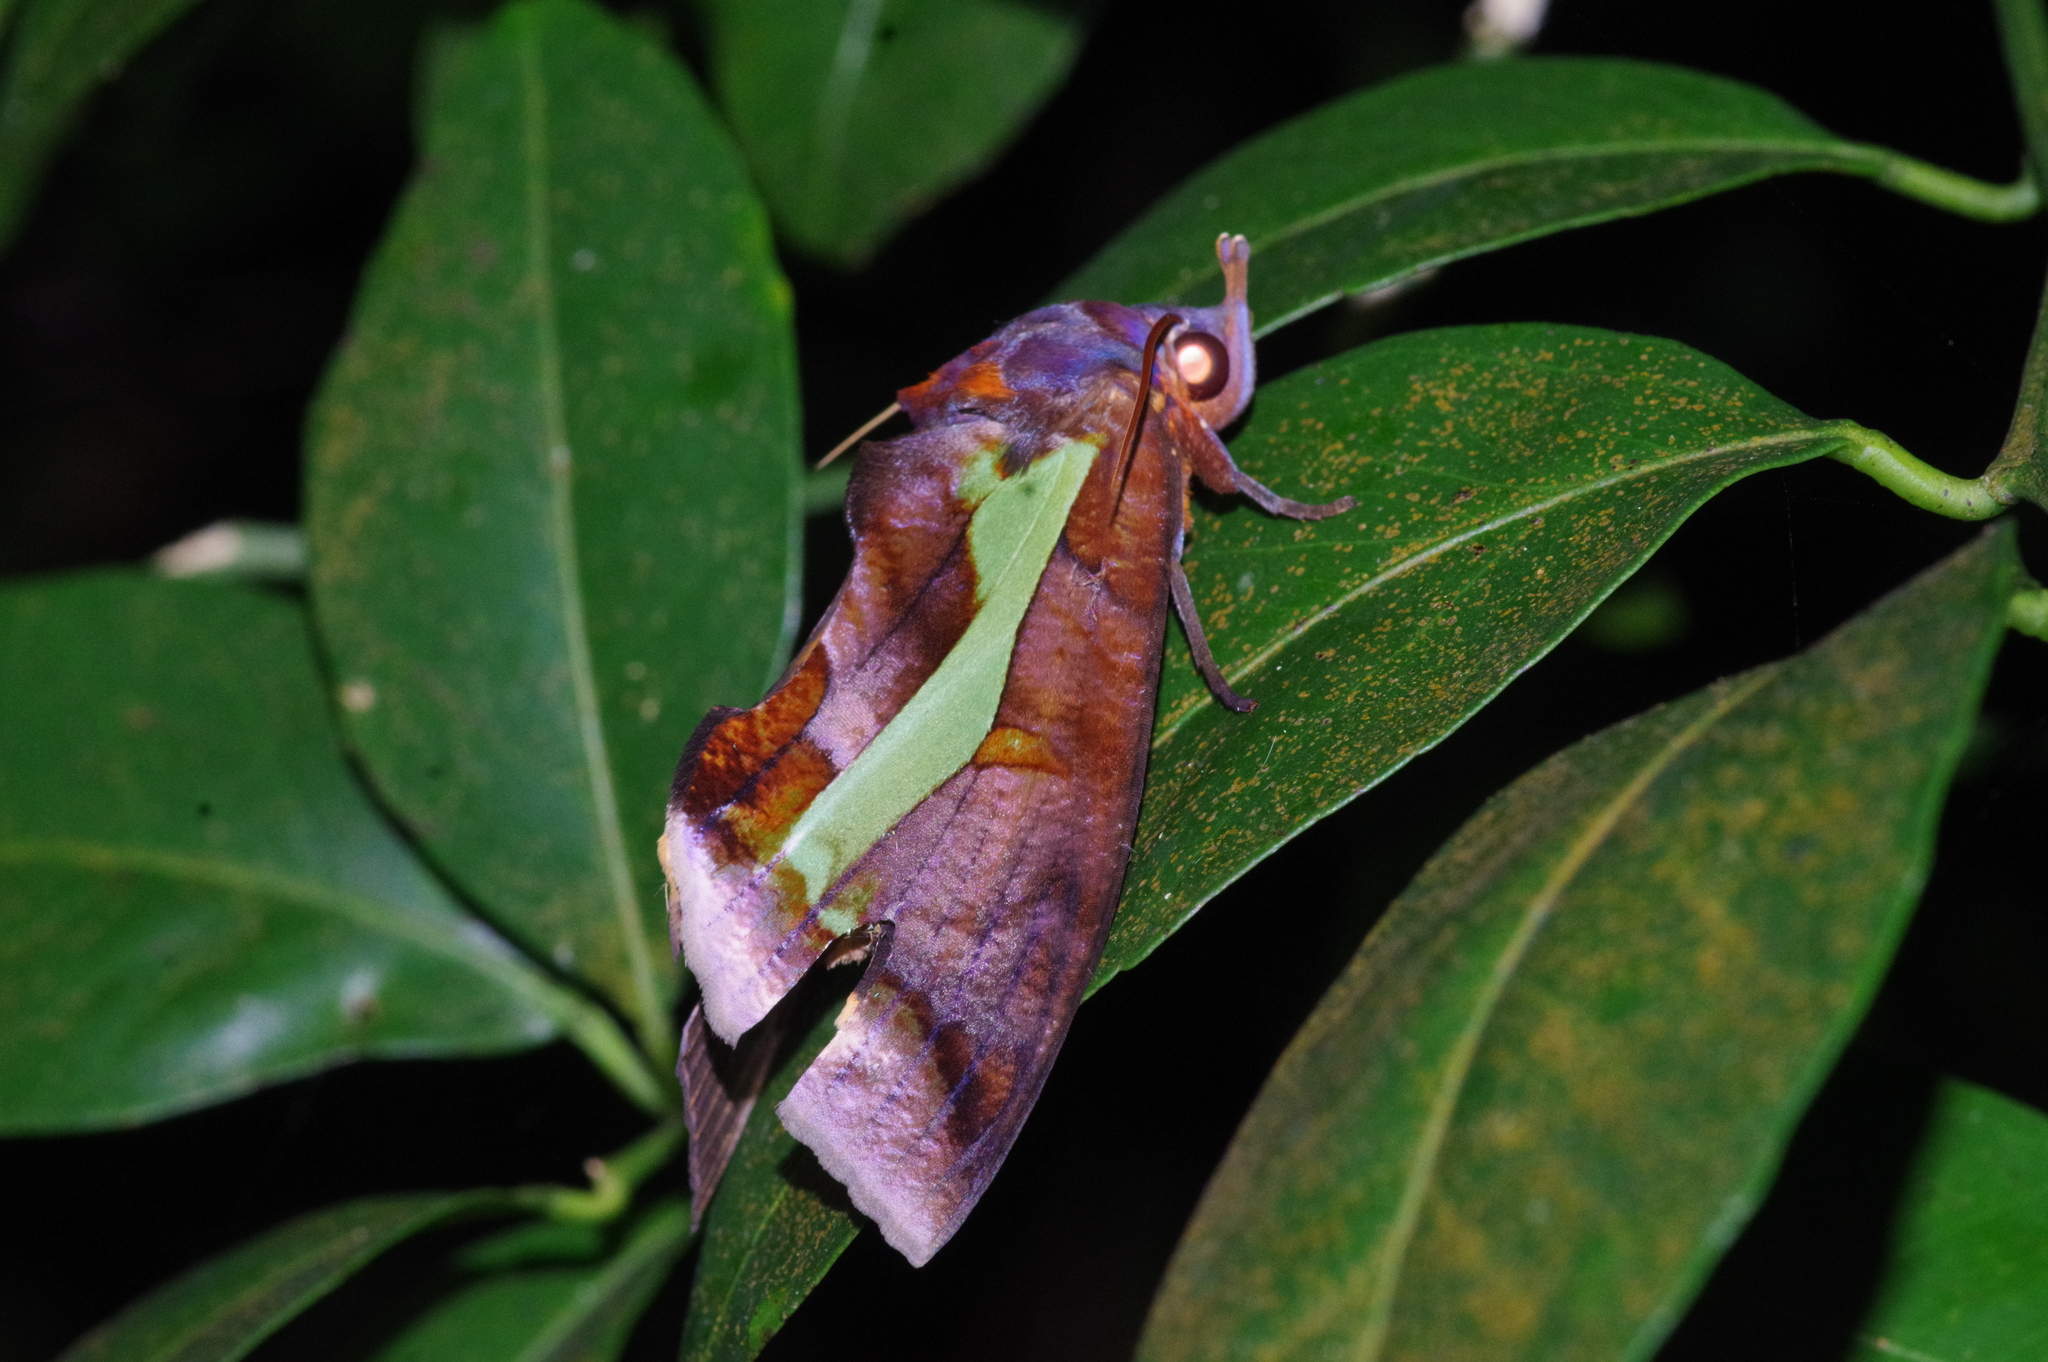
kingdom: Animalia
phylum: Arthropoda
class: Insecta
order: Lepidoptera
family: Erebidae
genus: Eudocima
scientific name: Eudocima homaena
